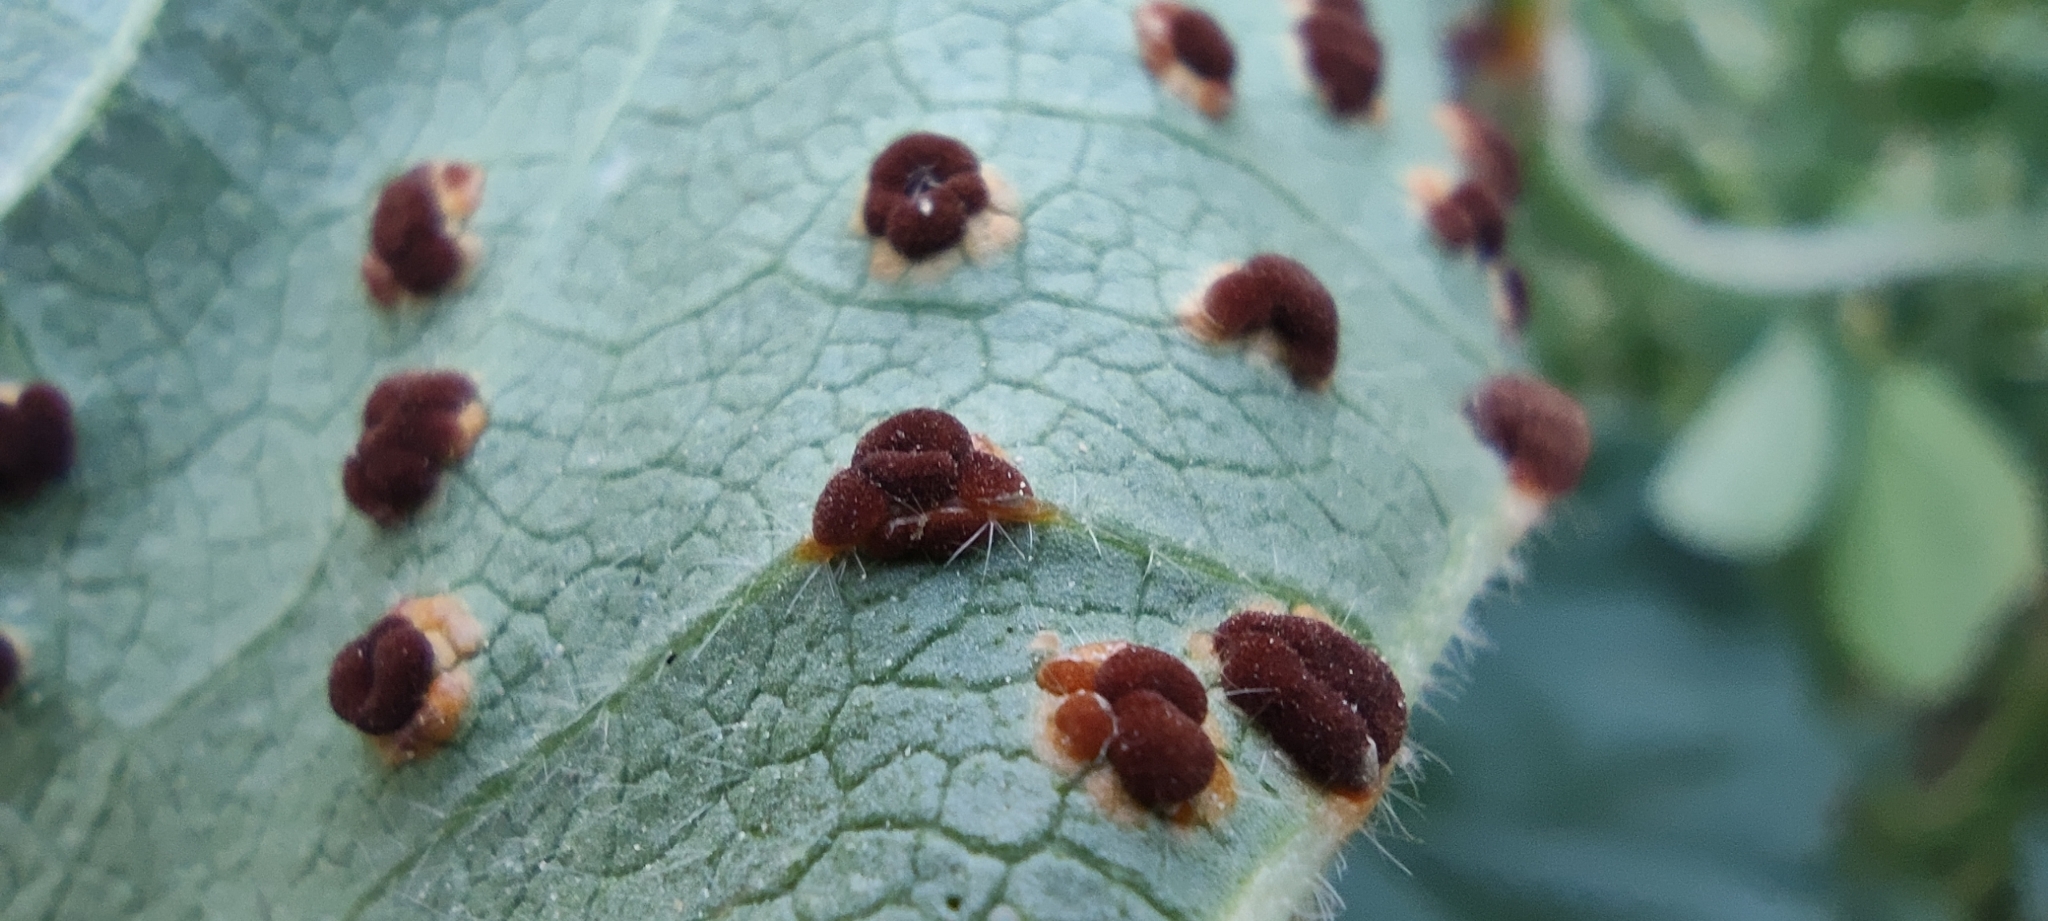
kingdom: Fungi
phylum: Basidiomycota
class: Pucciniomycetes
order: Pucciniales
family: Pucciniaceae
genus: Puccinia
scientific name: Puccinia malvacearum
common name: Hollyhock rust
